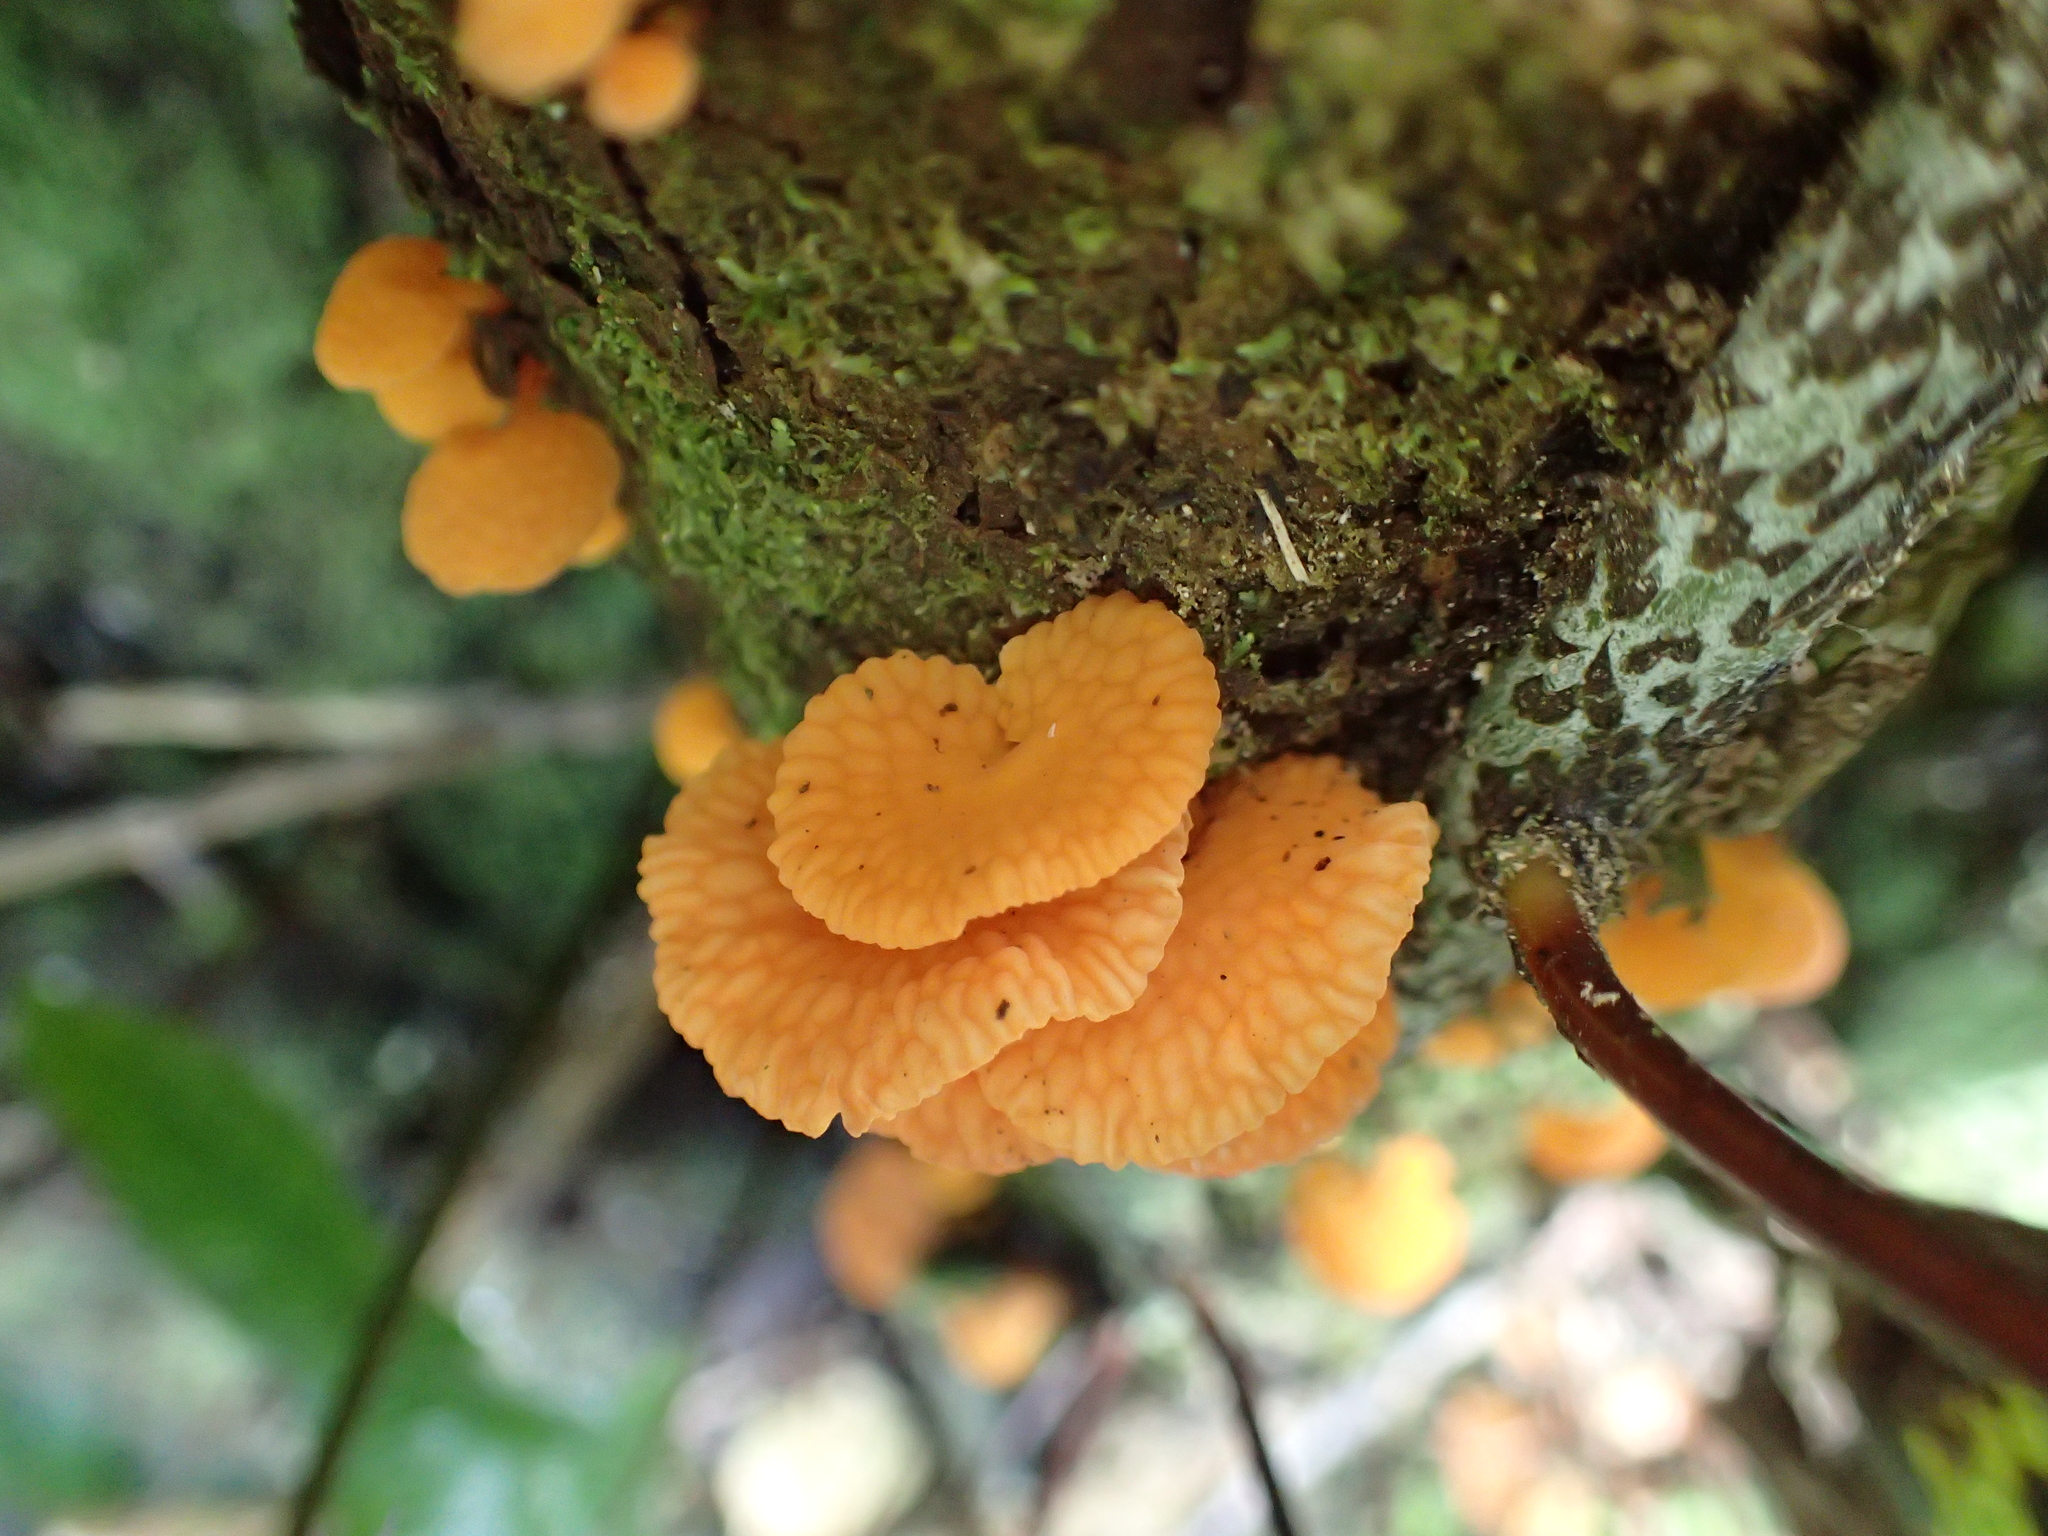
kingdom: Fungi
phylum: Basidiomycota
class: Agaricomycetes
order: Agaricales
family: Mycenaceae
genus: Favolaschia
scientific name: Favolaschia claudopus
